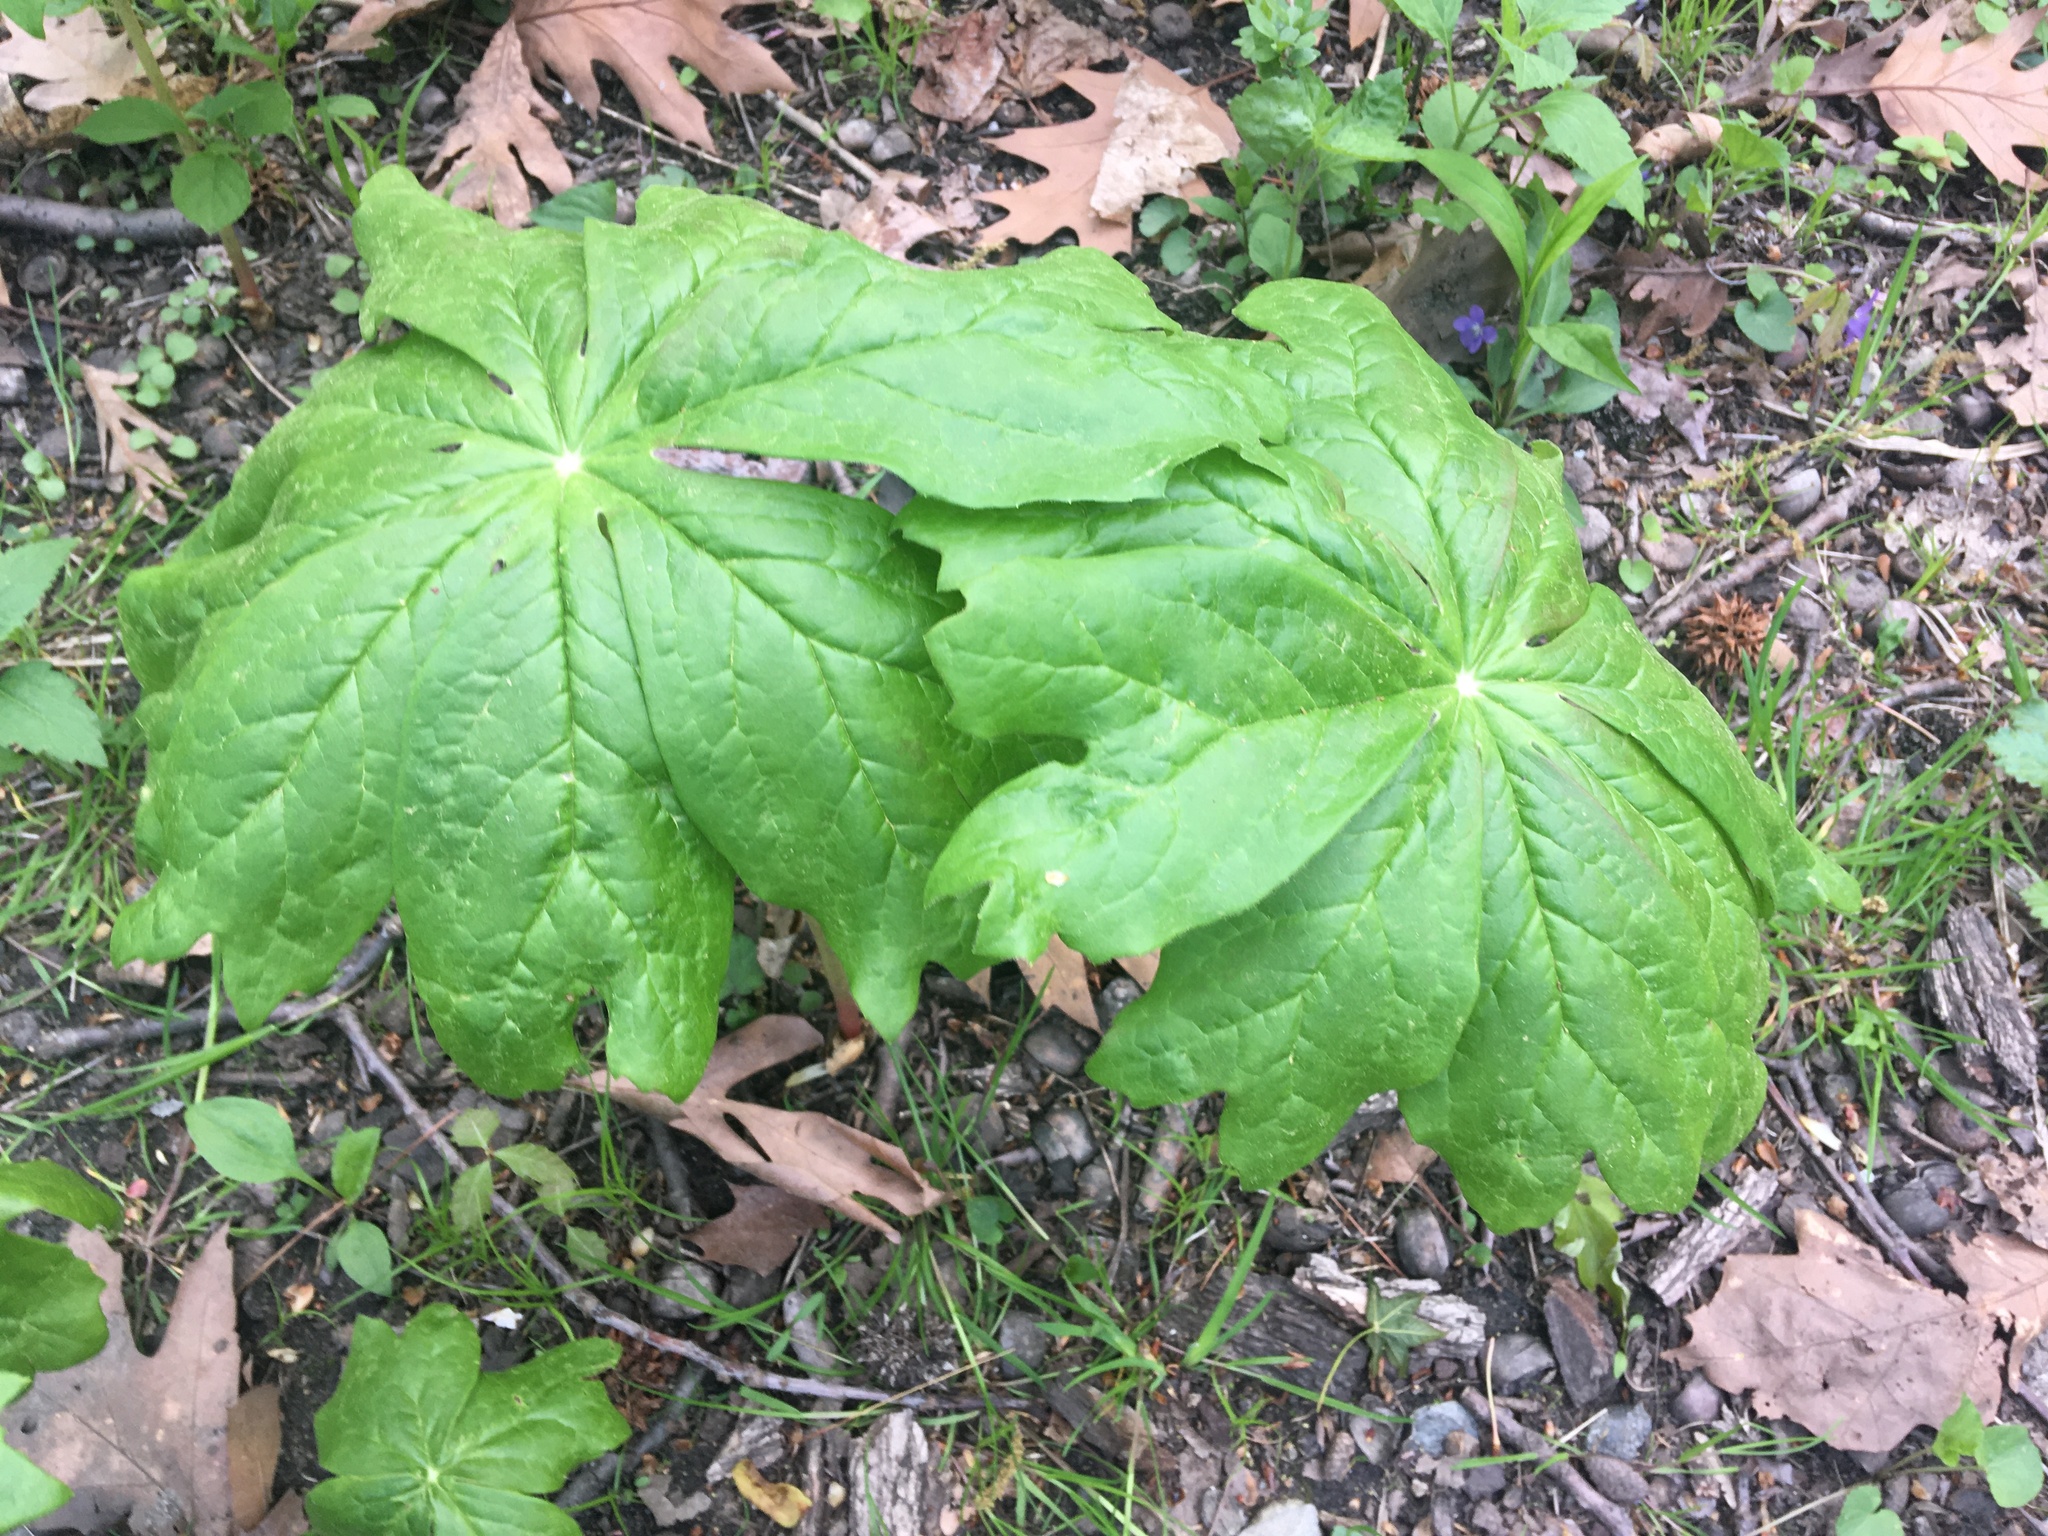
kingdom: Plantae
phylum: Tracheophyta
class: Magnoliopsida
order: Ranunculales
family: Berberidaceae
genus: Podophyllum
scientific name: Podophyllum peltatum
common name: Wild mandrake
